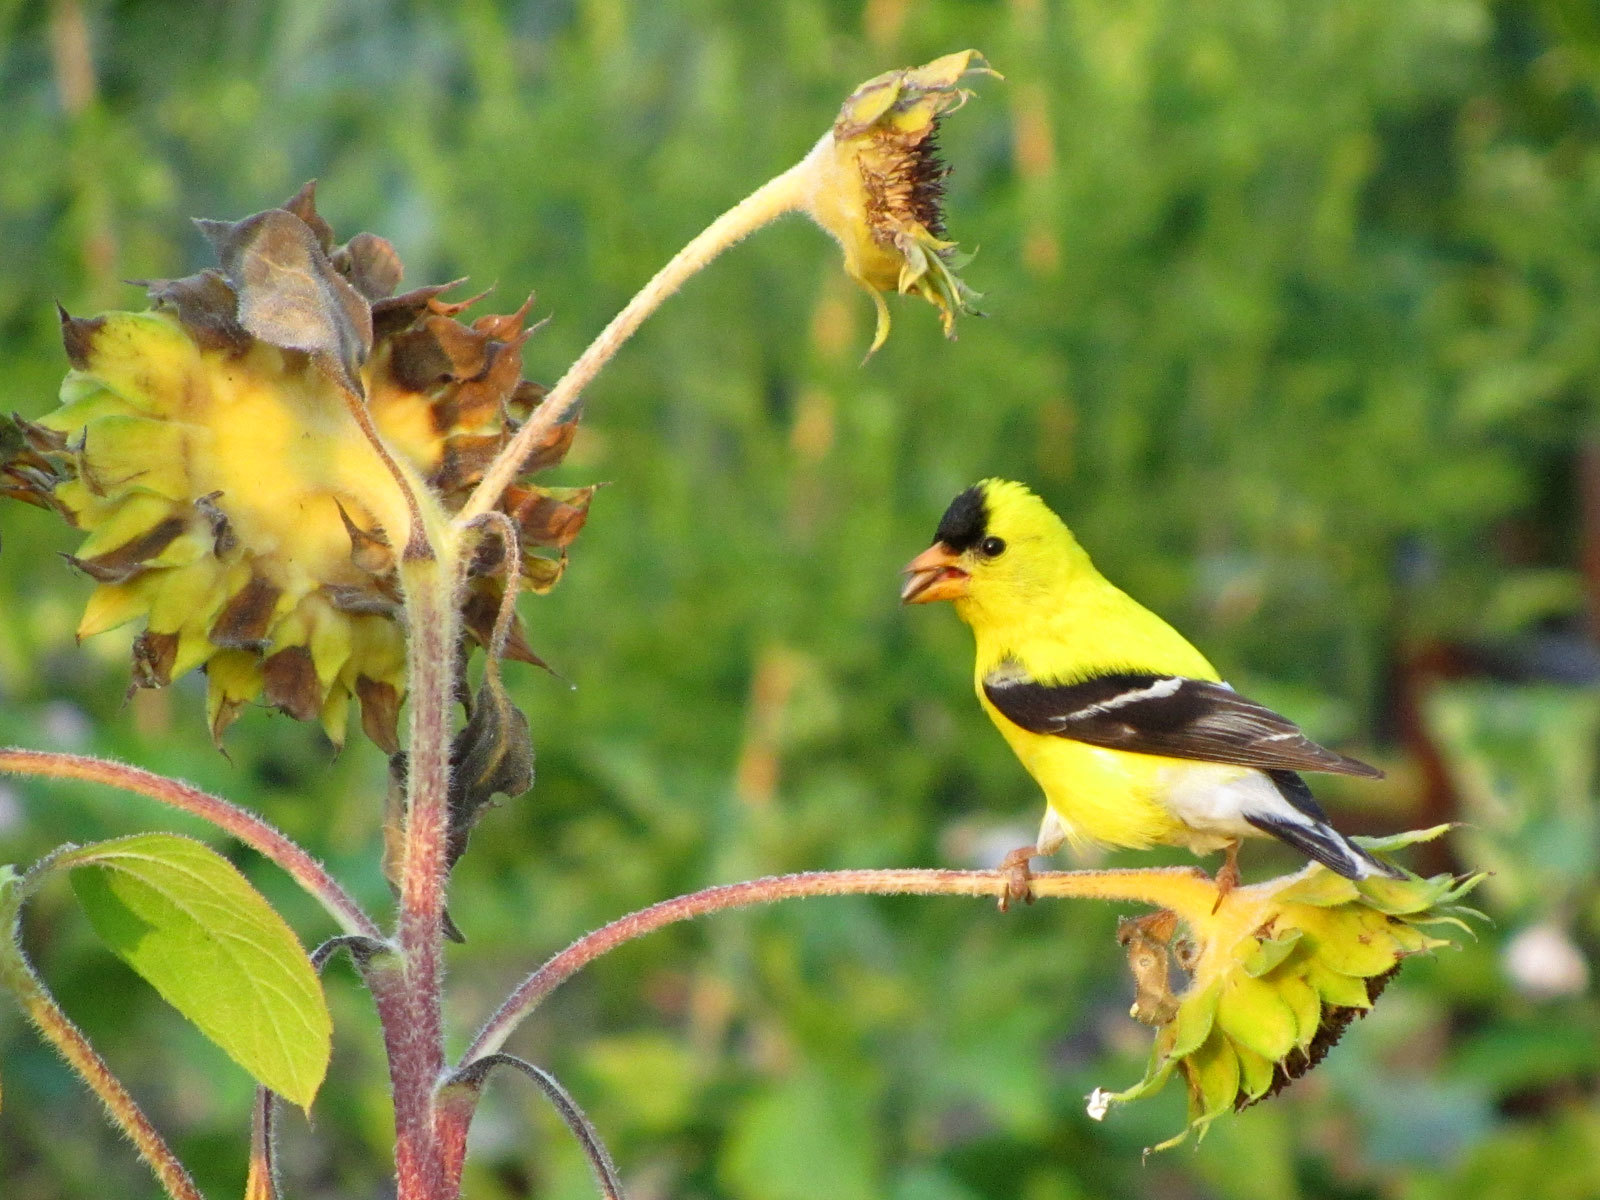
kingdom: Animalia
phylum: Chordata
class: Aves
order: Passeriformes
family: Fringillidae
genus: Spinus
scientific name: Spinus tristis
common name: American goldfinch
